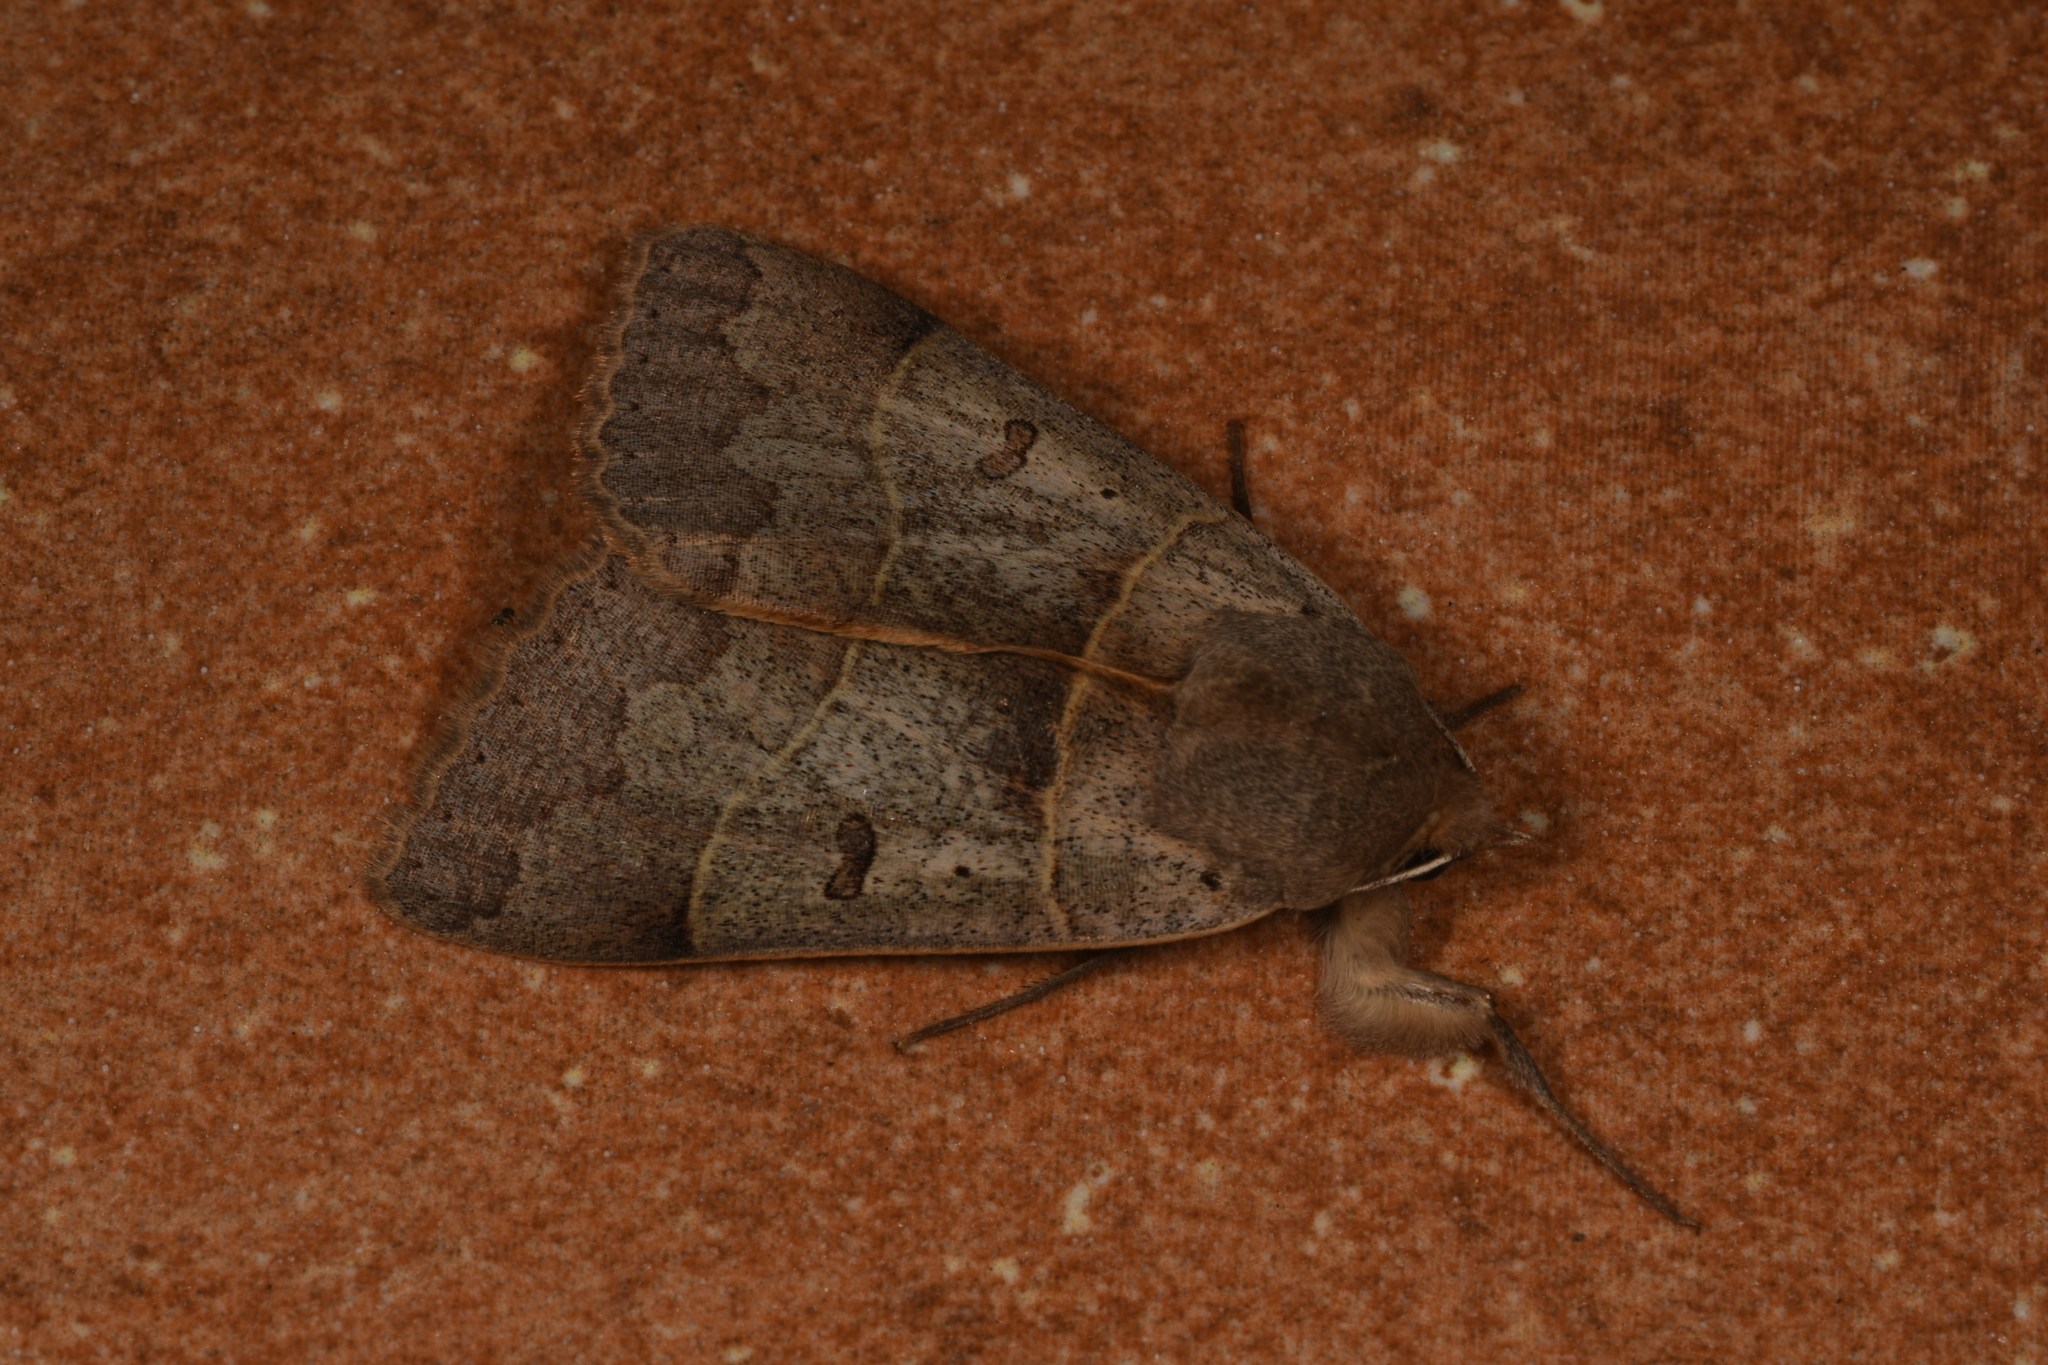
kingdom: Animalia
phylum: Arthropoda
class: Insecta
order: Lepidoptera
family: Erebidae
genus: Minucia
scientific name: Minucia lunaris
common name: Lunar double-stripe
